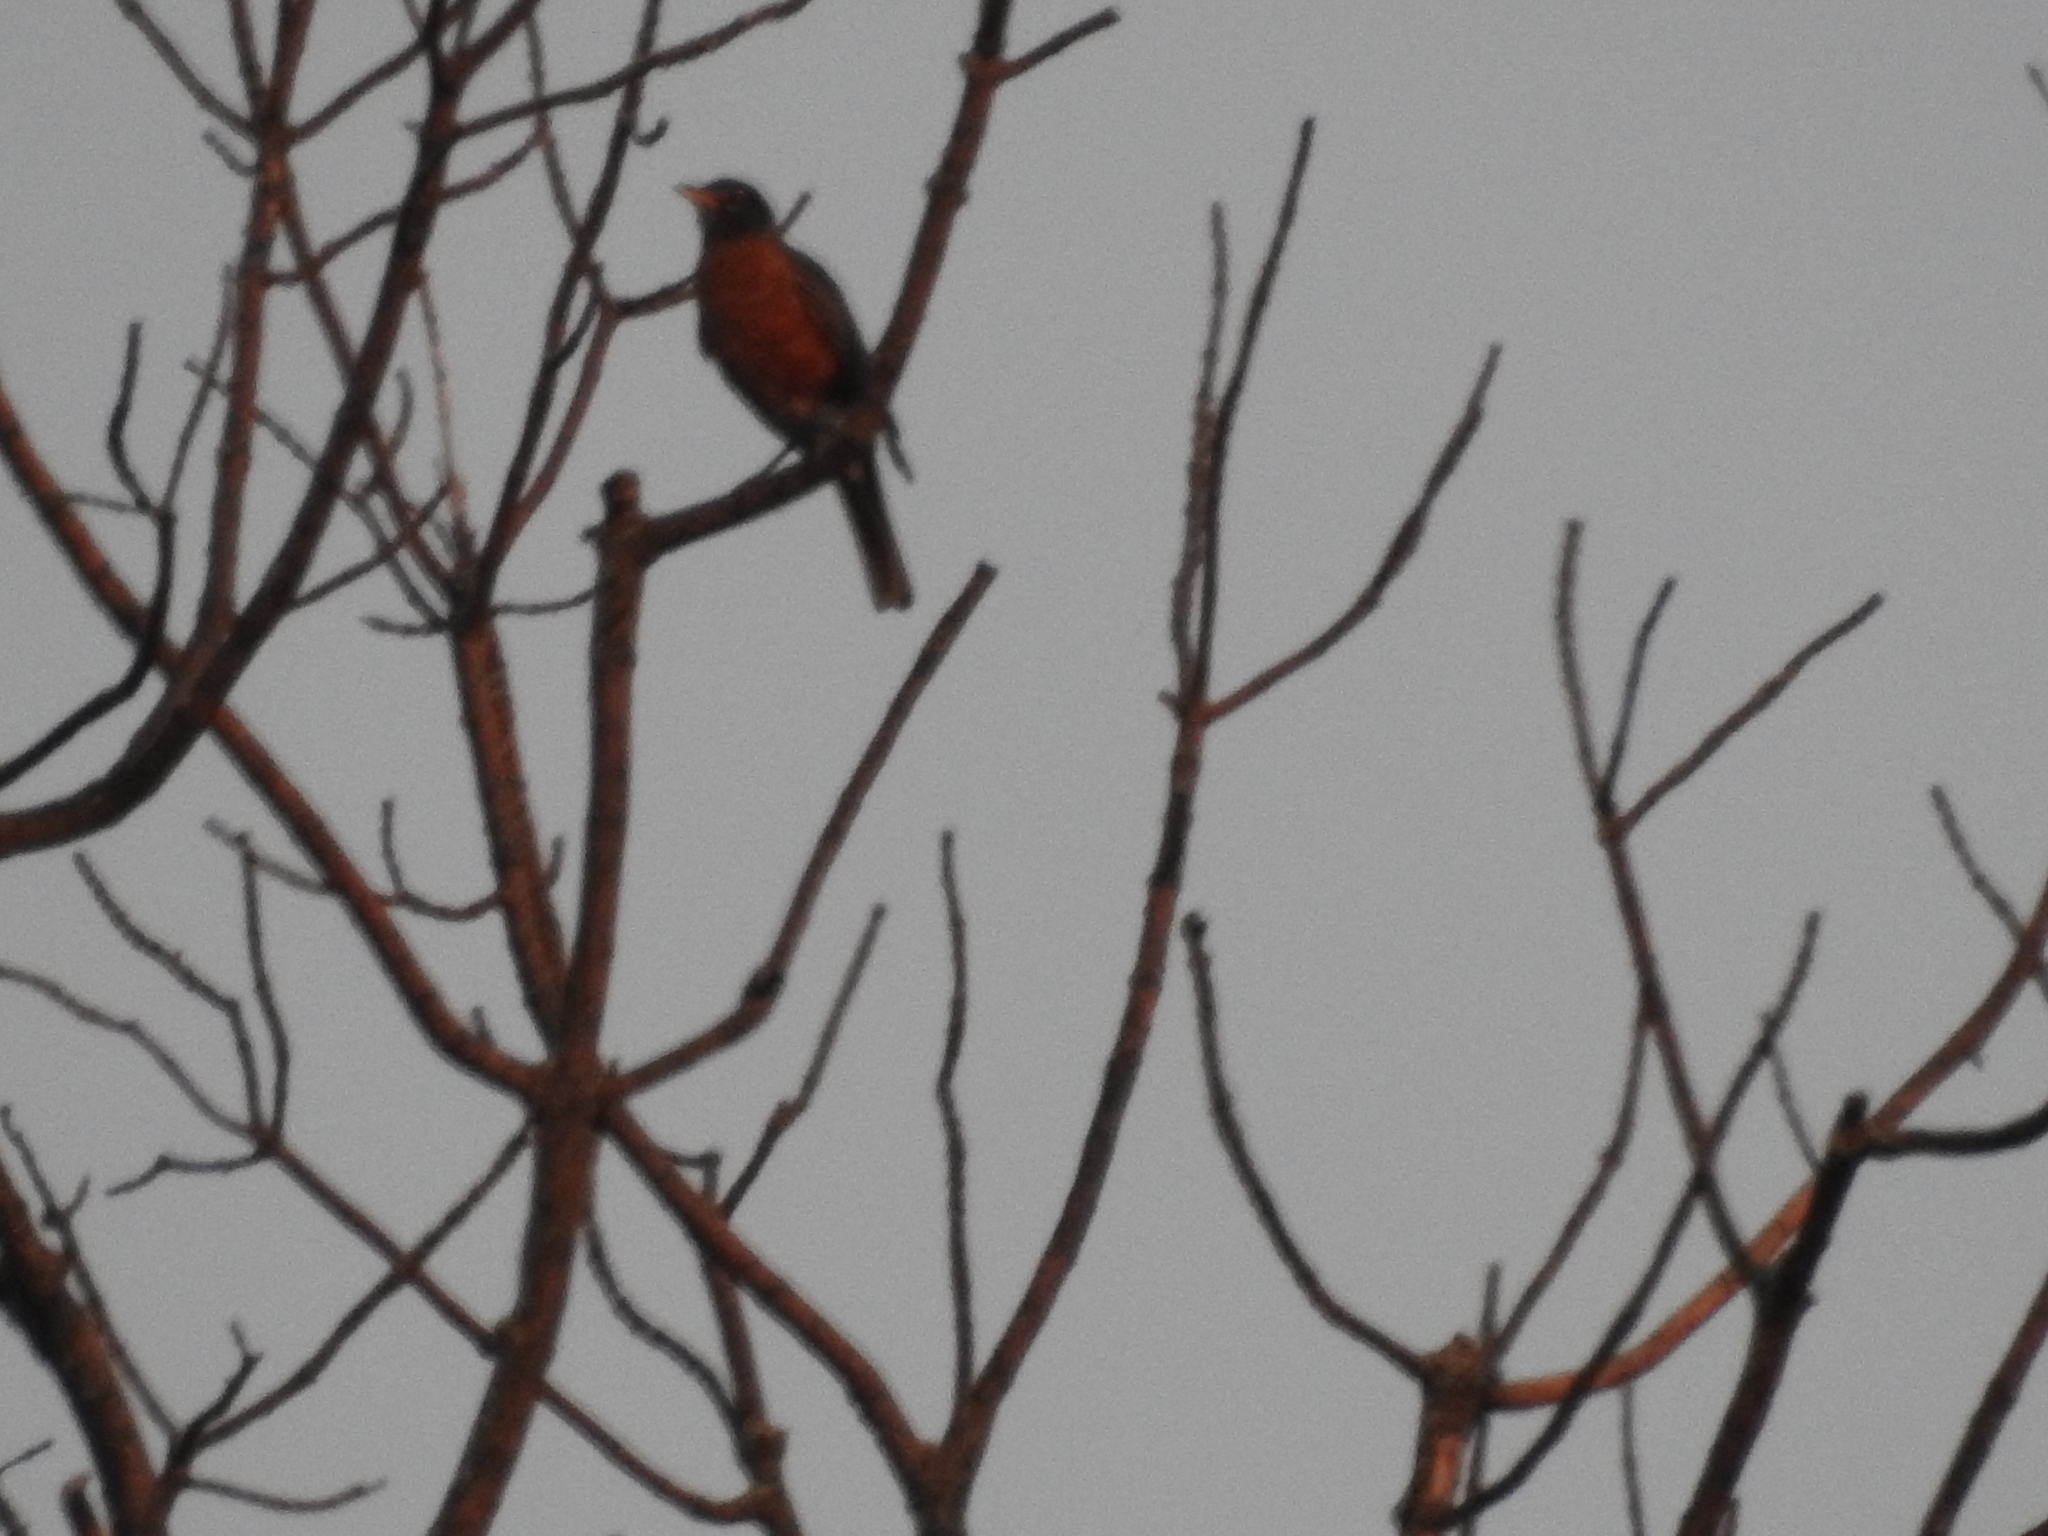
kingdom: Animalia
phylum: Chordata
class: Aves
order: Passeriformes
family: Turdidae
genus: Turdus
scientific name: Turdus migratorius
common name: American robin
